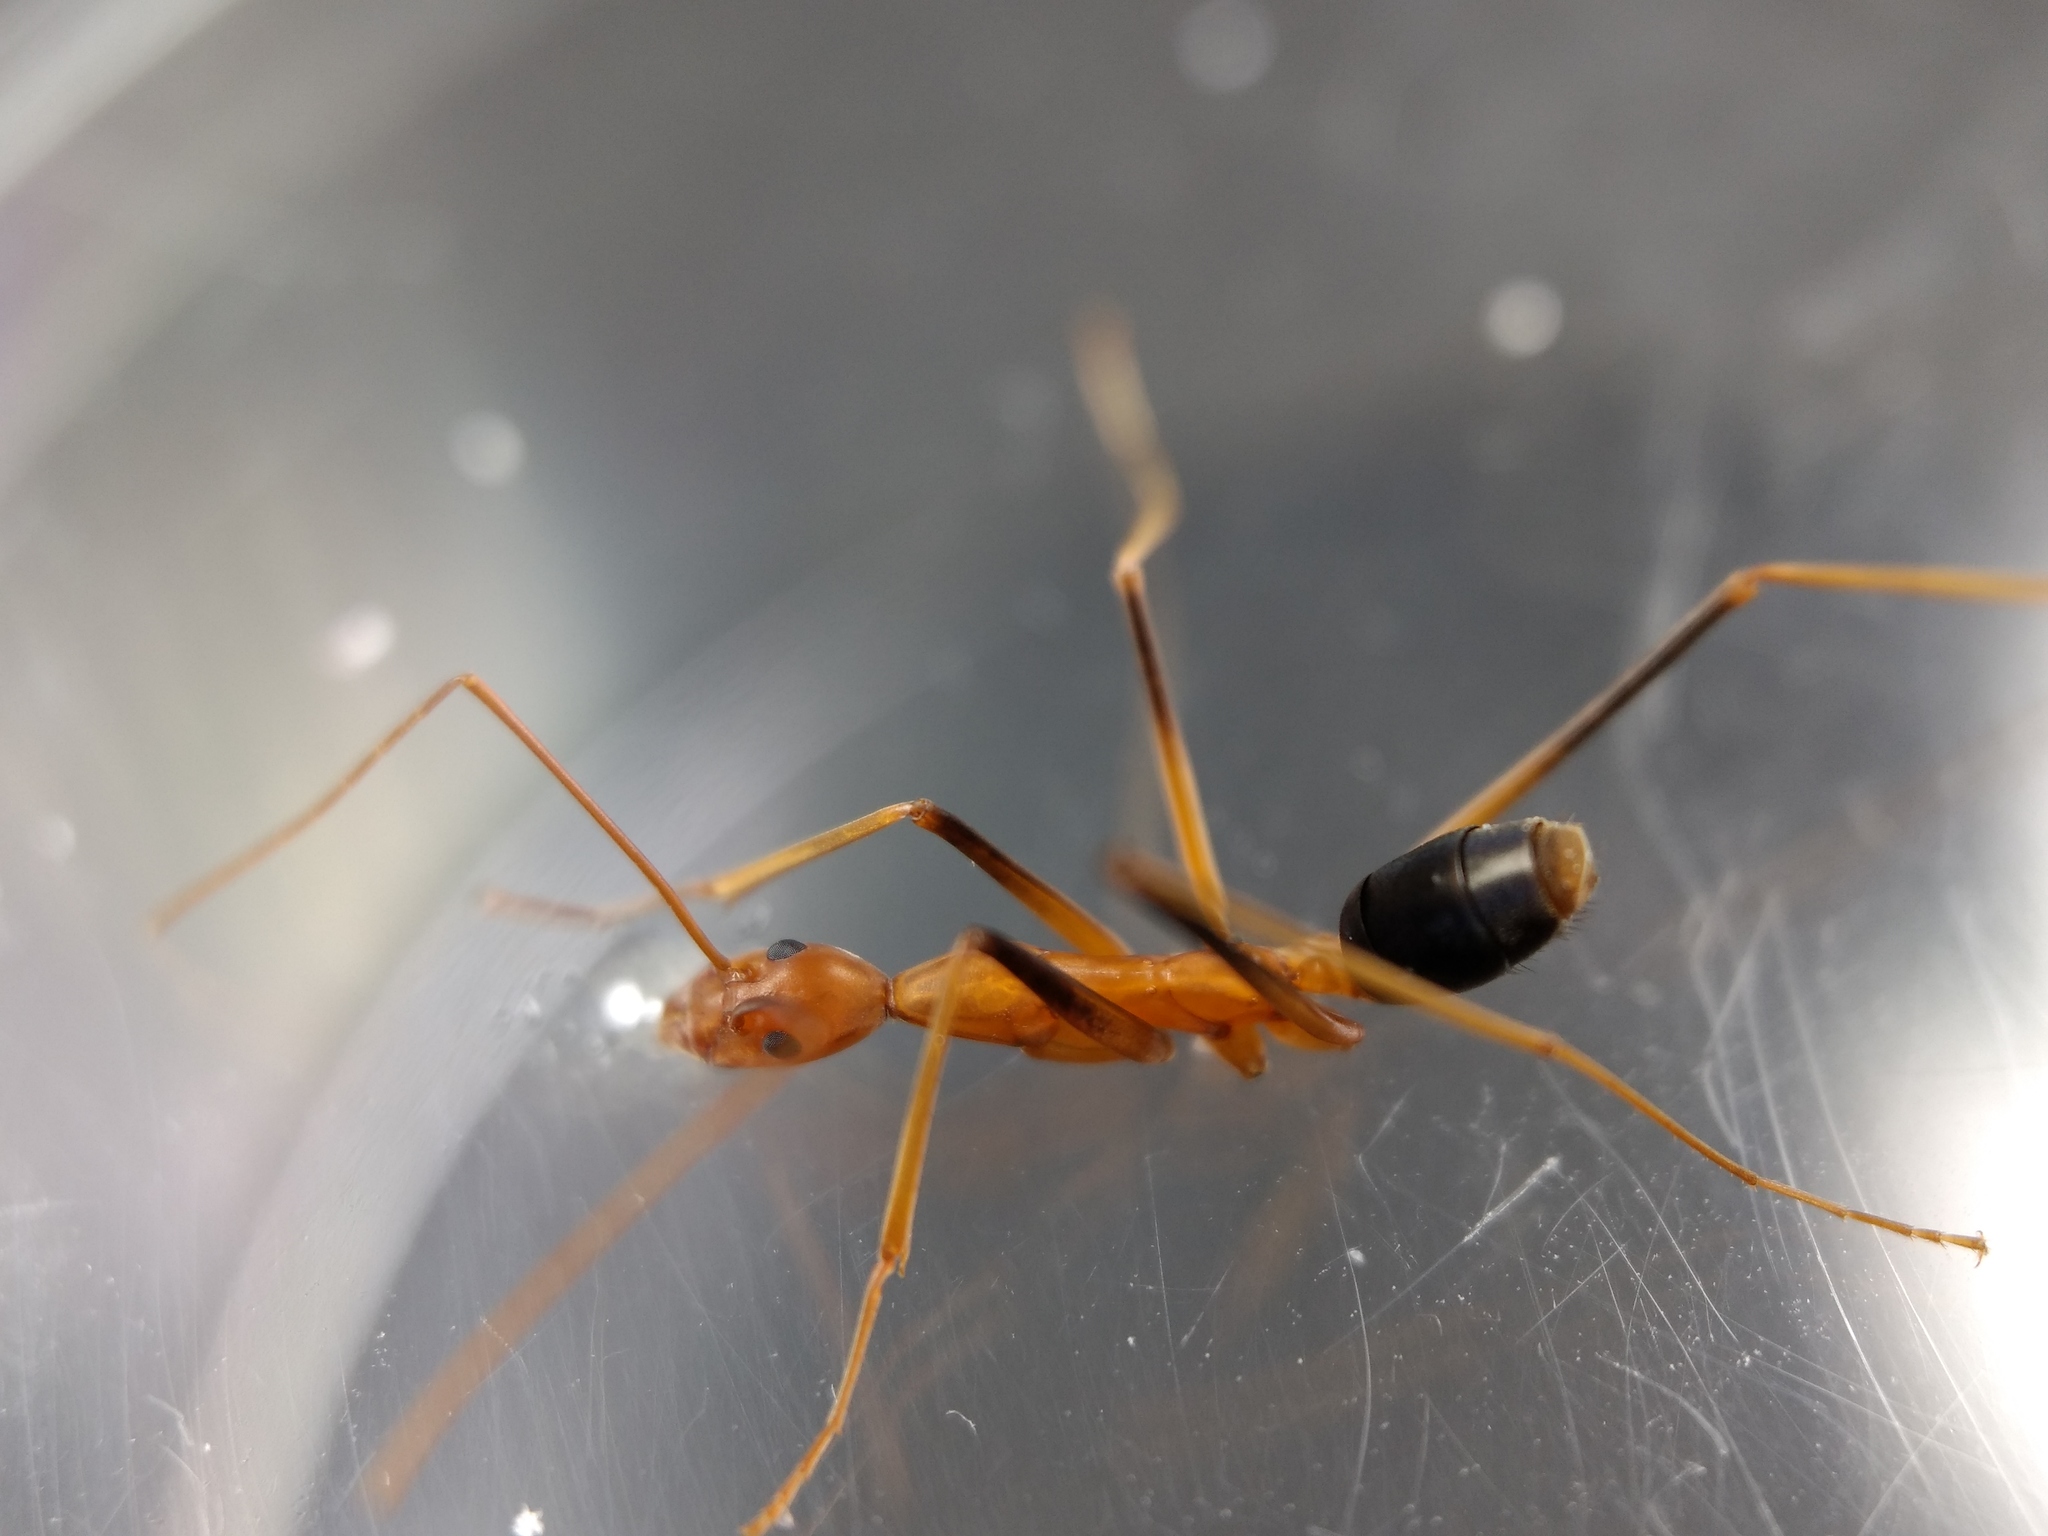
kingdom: Animalia
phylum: Arthropoda
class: Insecta
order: Hymenoptera
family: Formicidae
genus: Leptomyrmex
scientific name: Leptomyrmex rufipes
